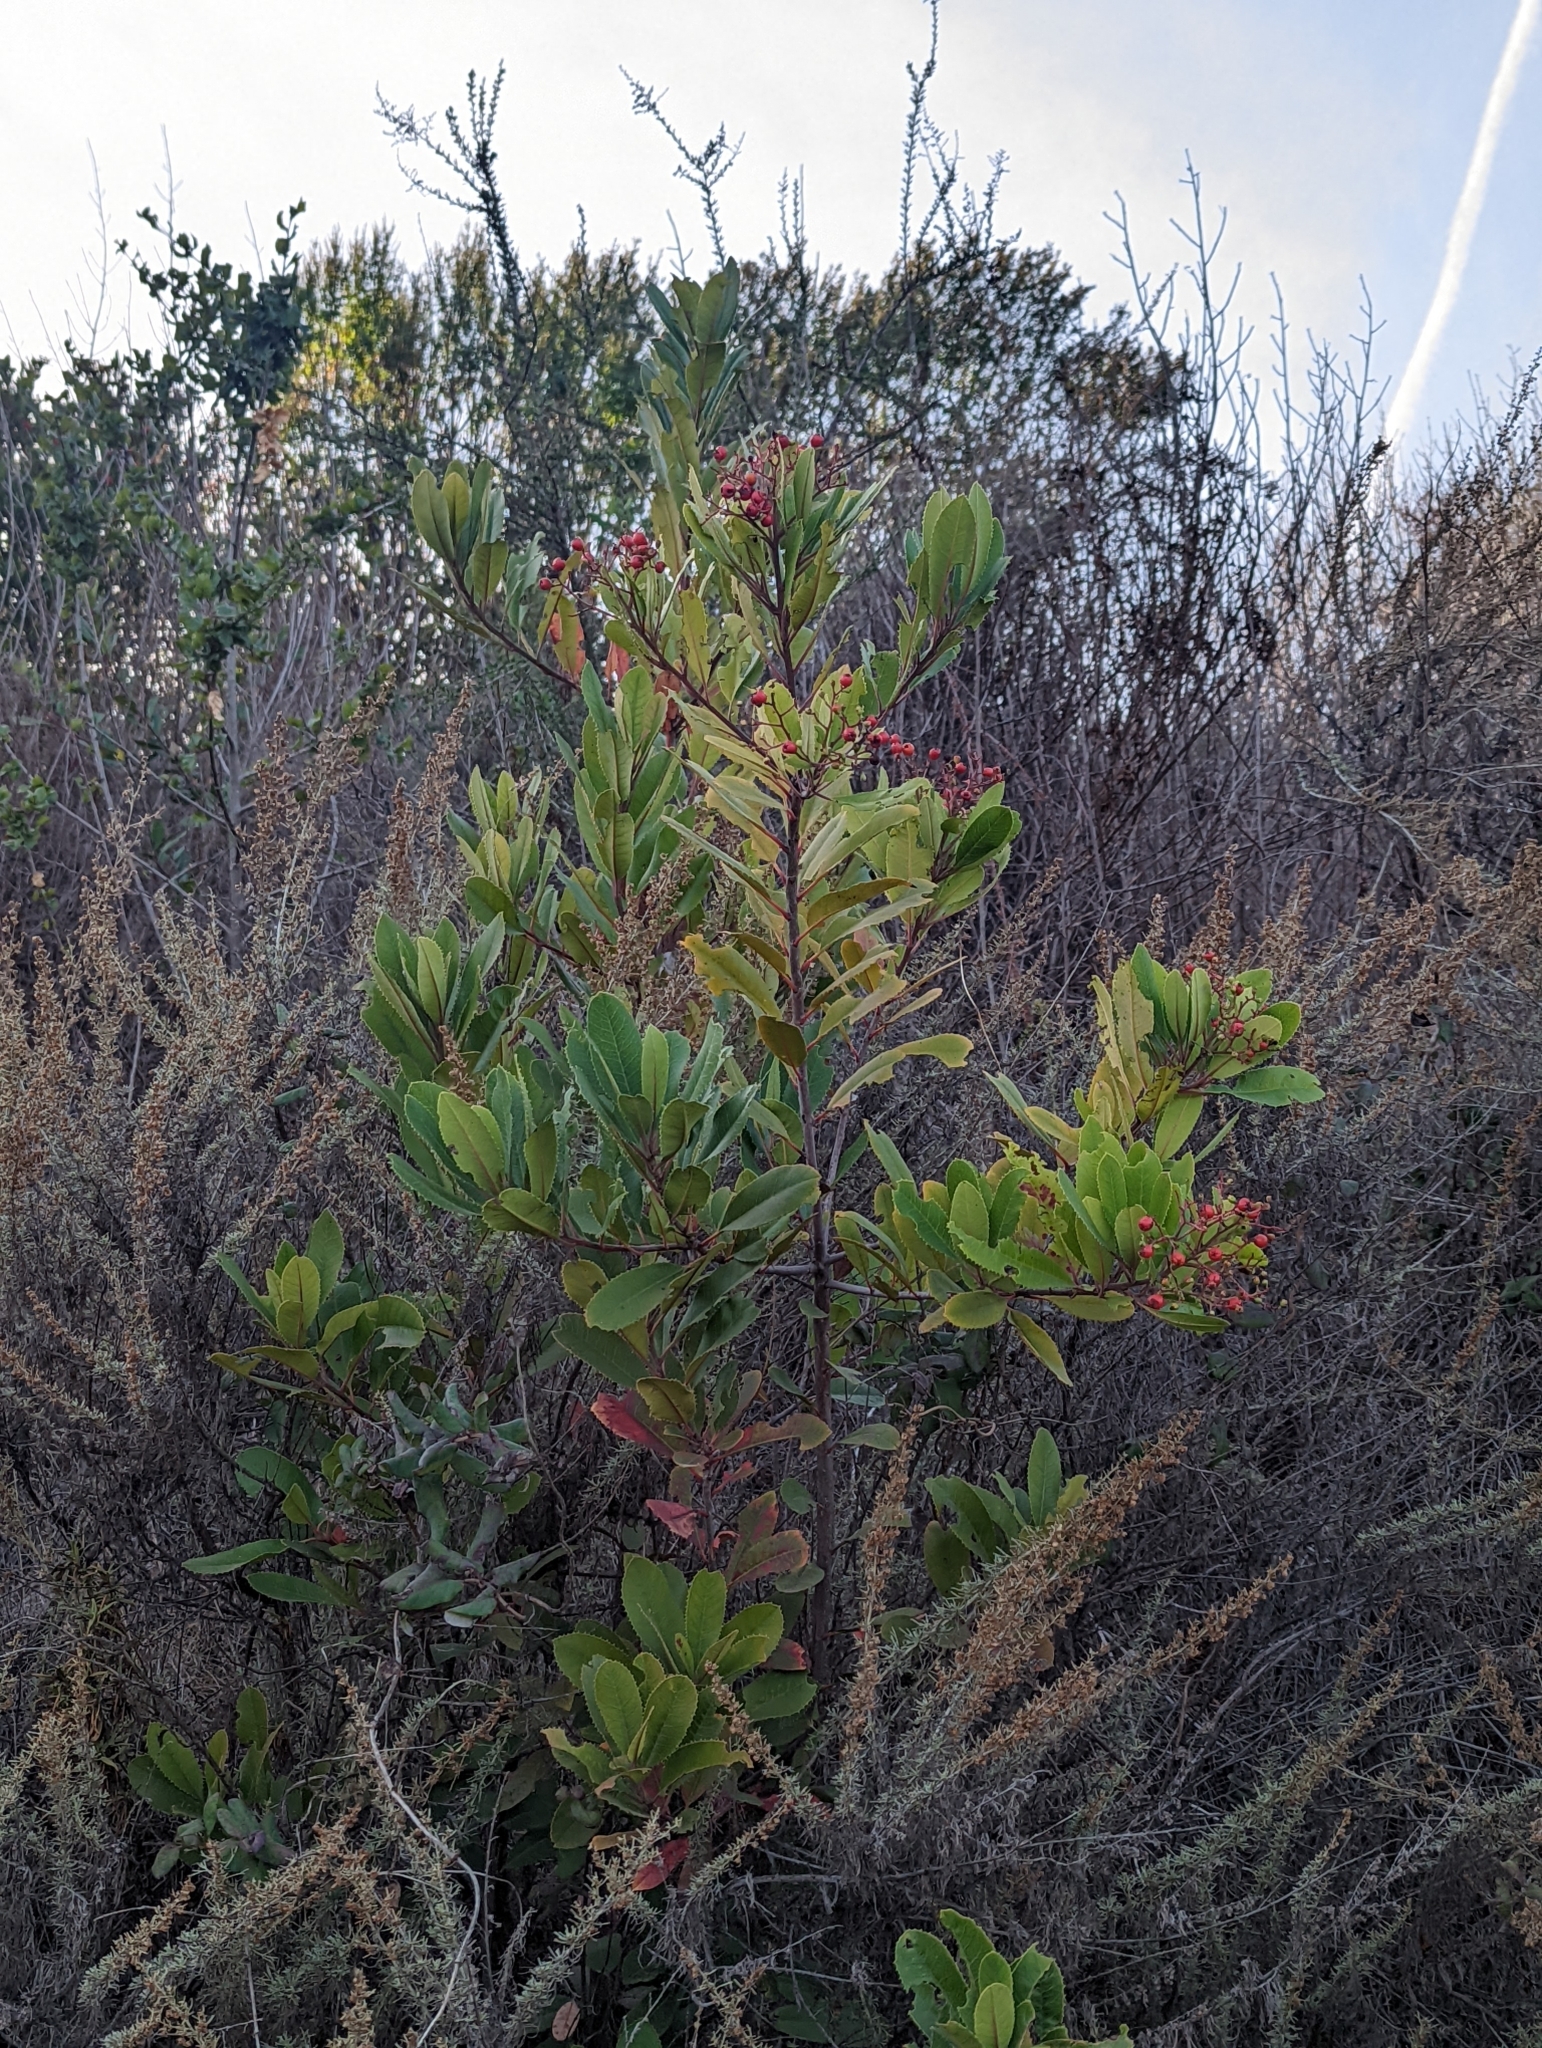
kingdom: Plantae
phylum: Tracheophyta
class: Magnoliopsida
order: Rosales
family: Rosaceae
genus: Heteromeles
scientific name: Heteromeles arbutifolia
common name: California-holly
